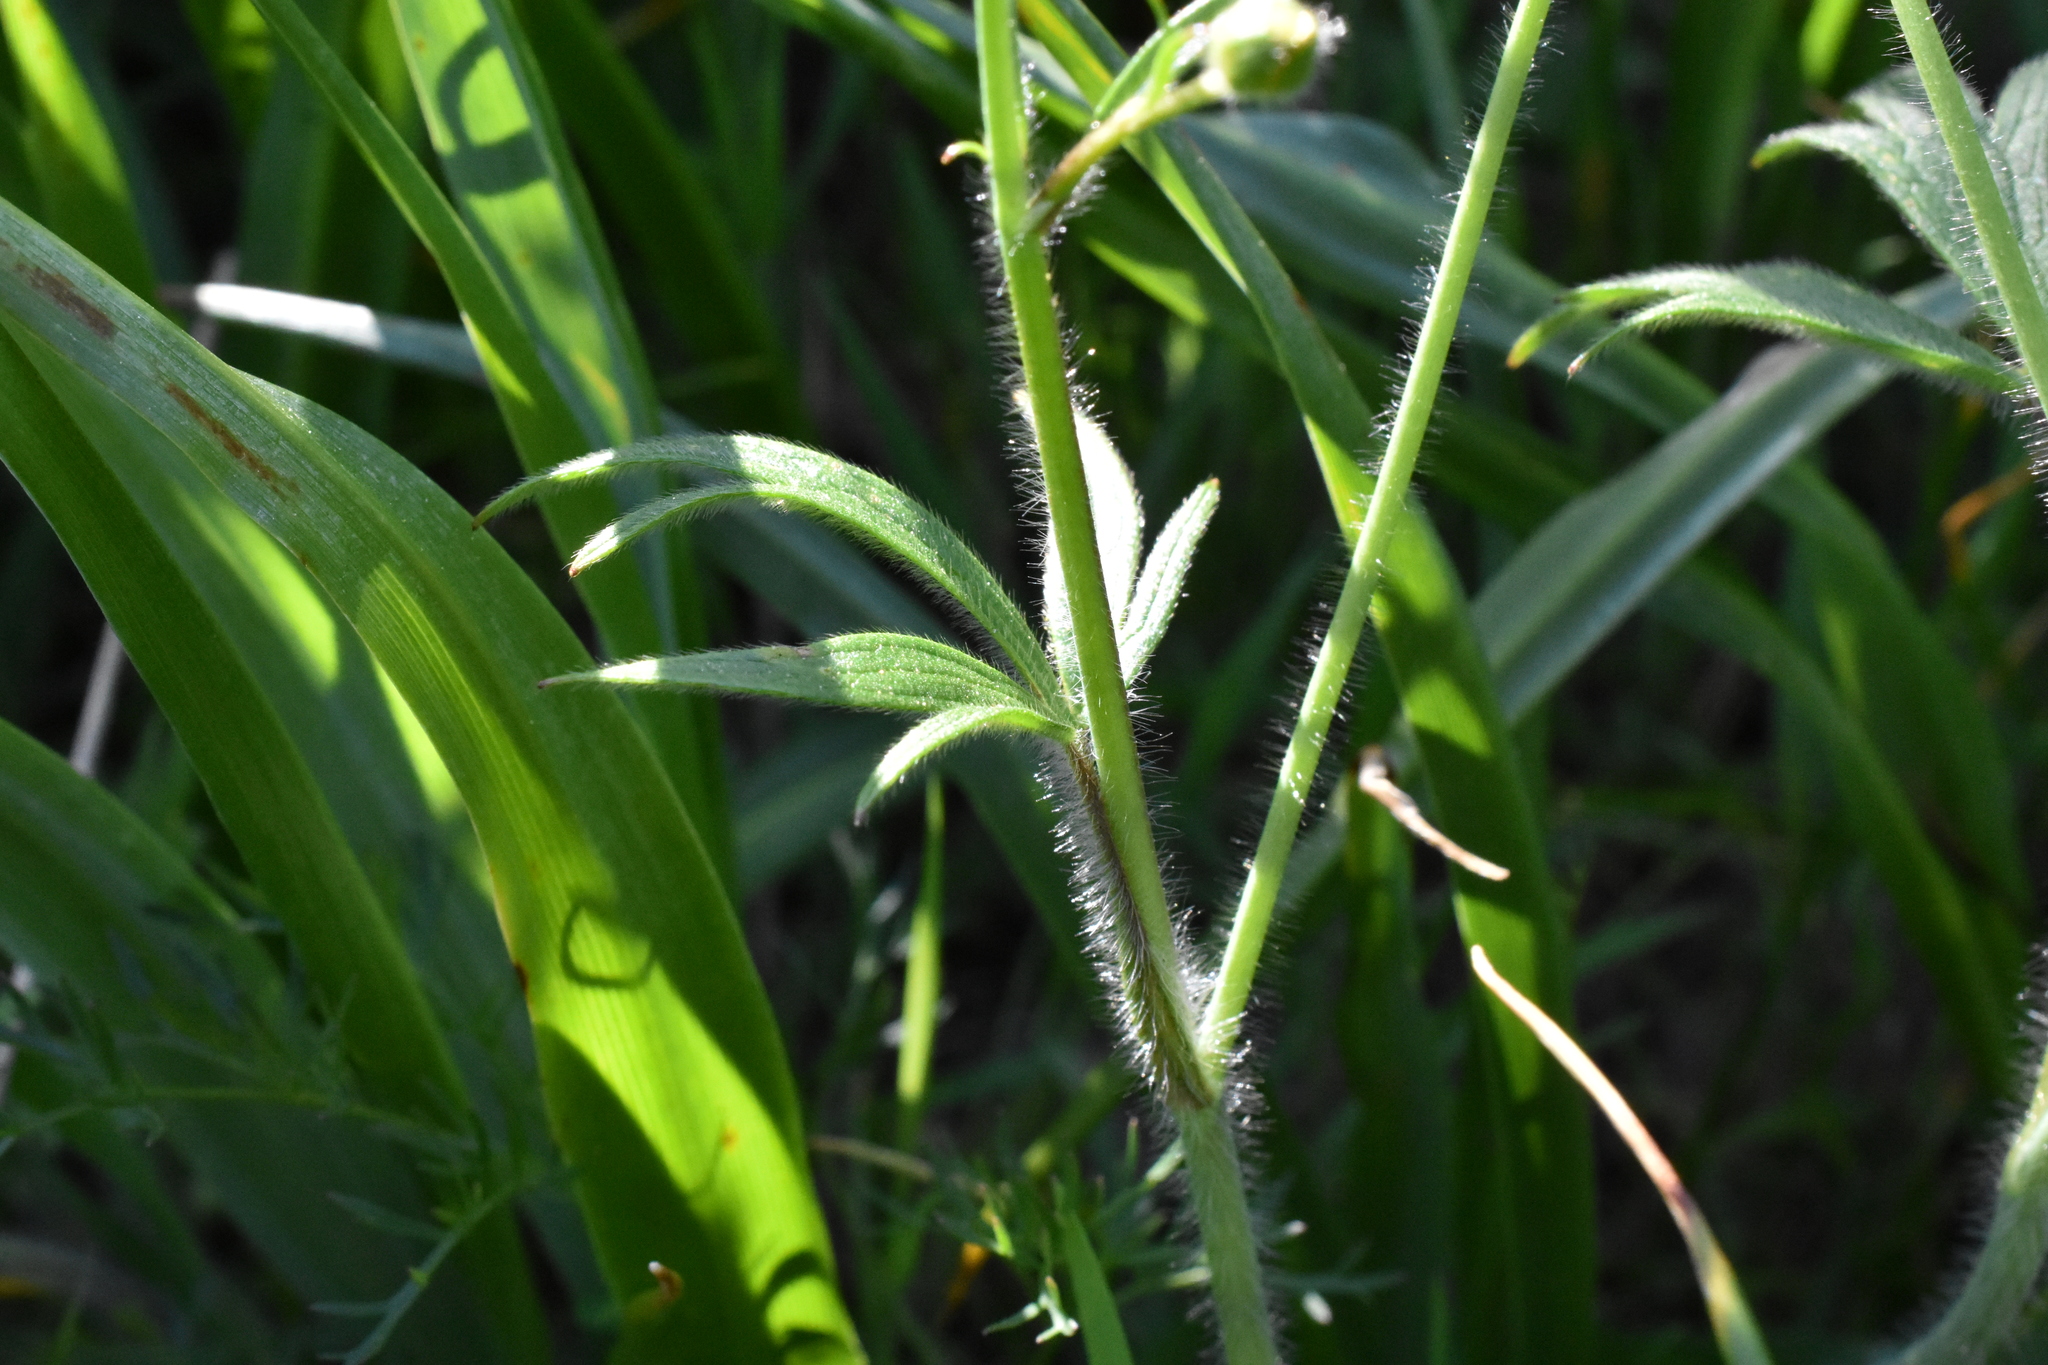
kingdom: Plantae
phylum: Tracheophyta
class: Magnoliopsida
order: Ranunculales
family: Ranunculaceae
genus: Ranunculus
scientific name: Ranunculus occidentalis
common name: Western buttercup
